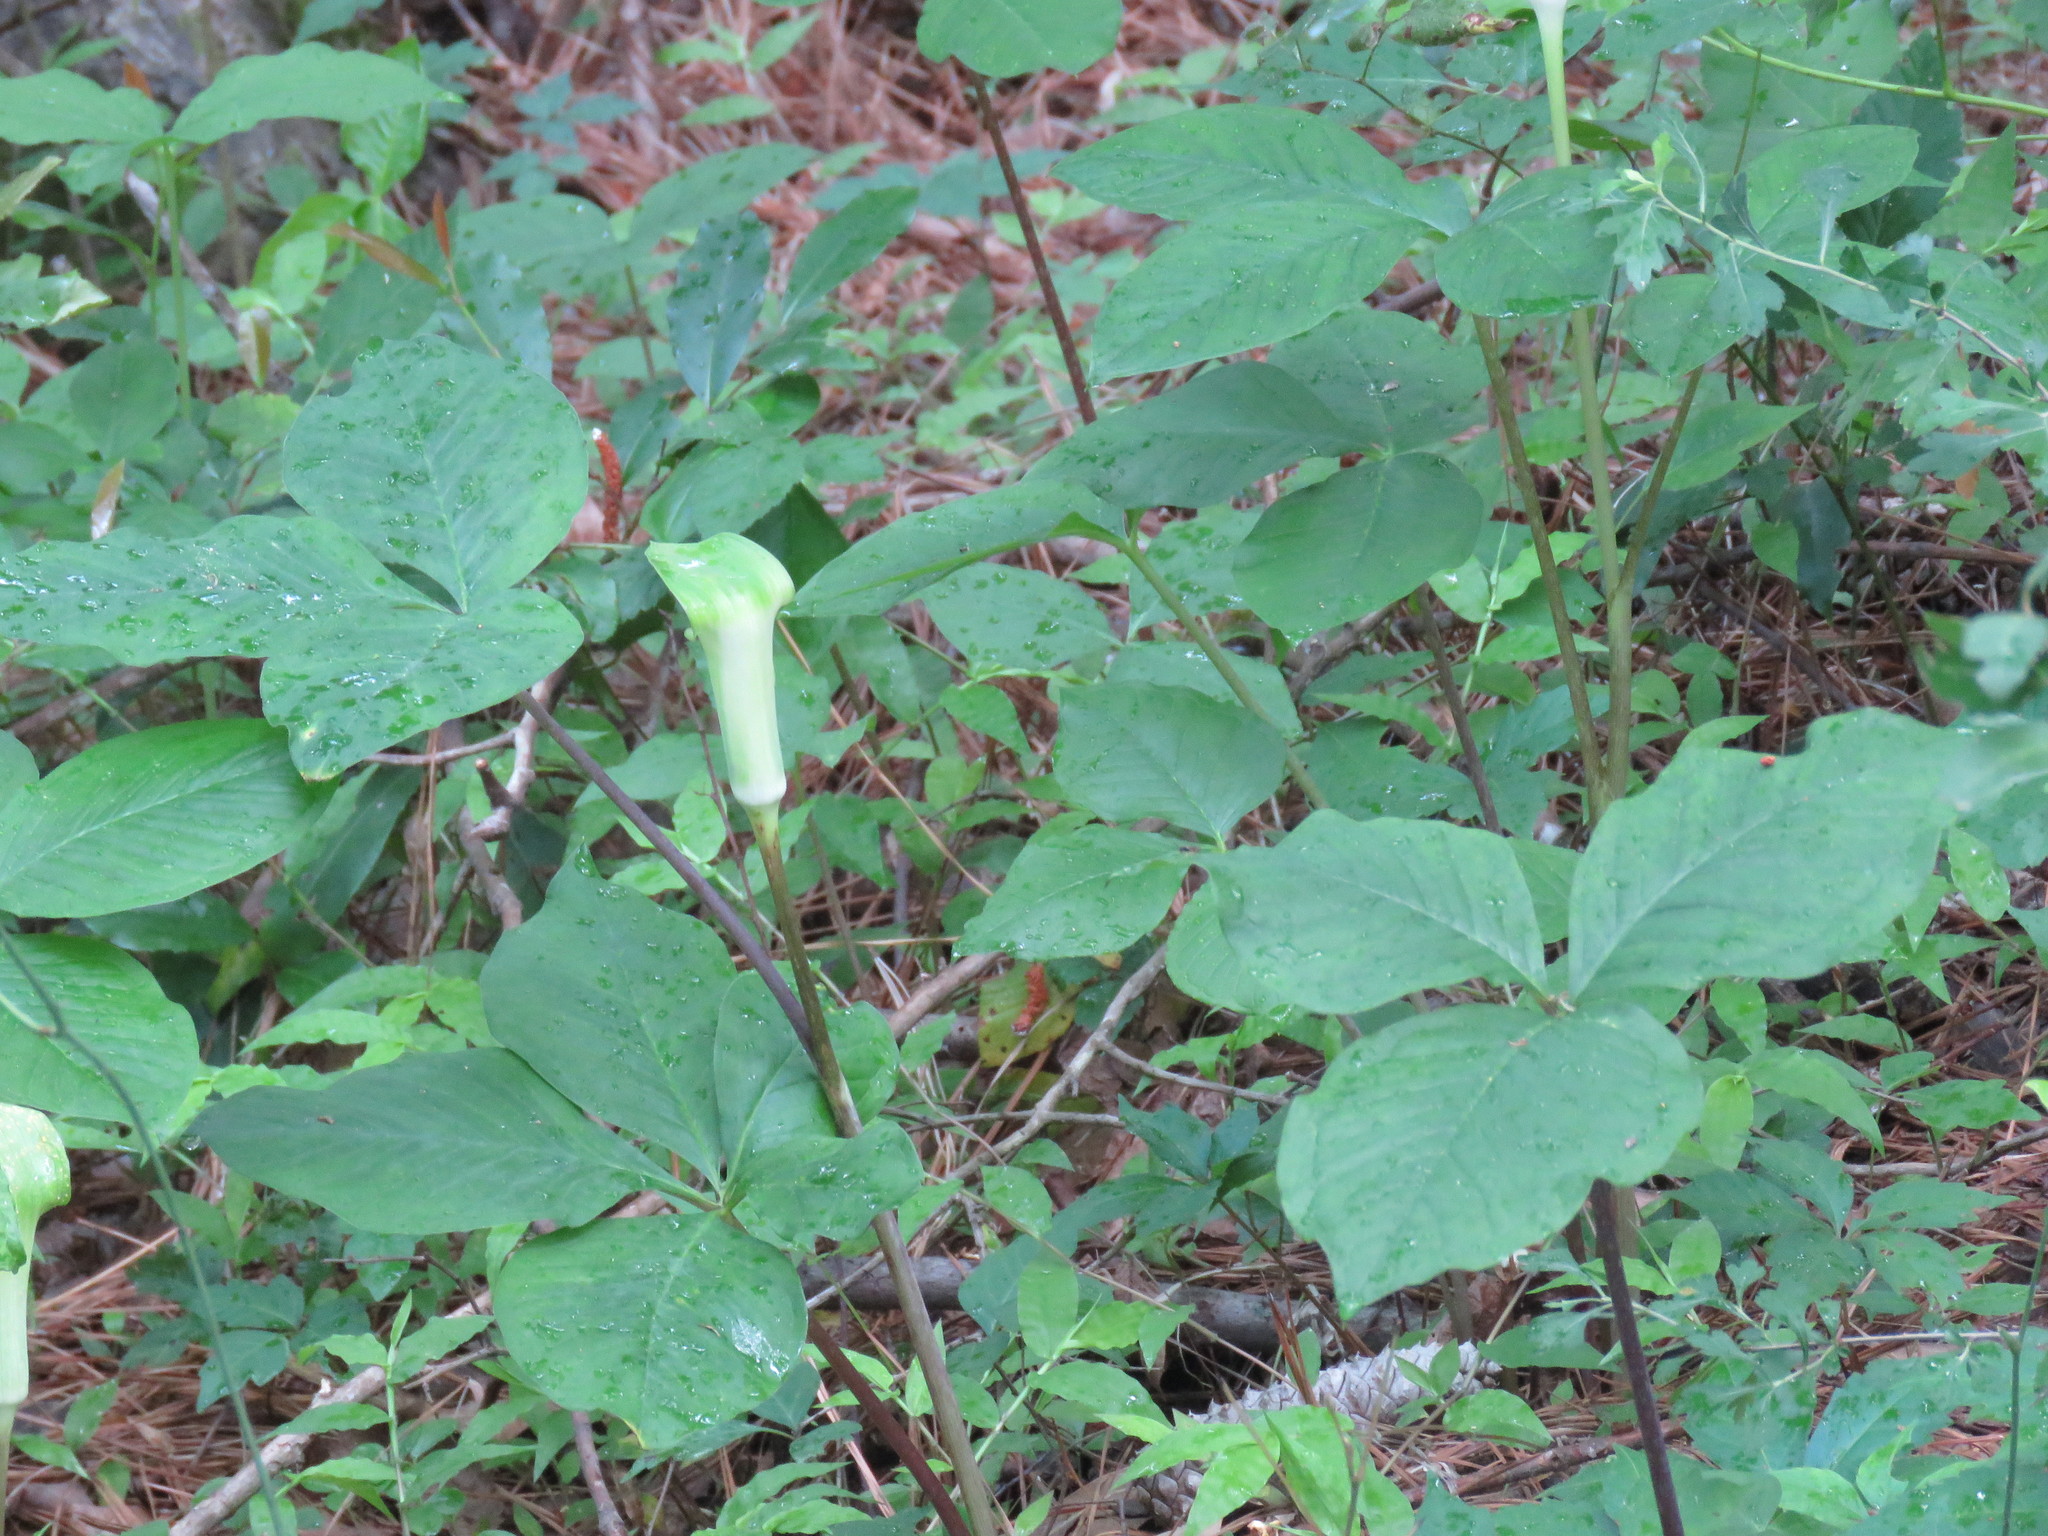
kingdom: Plantae
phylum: Tracheophyta
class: Liliopsida
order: Alismatales
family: Araceae
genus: Arisaema
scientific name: Arisaema quinatum
